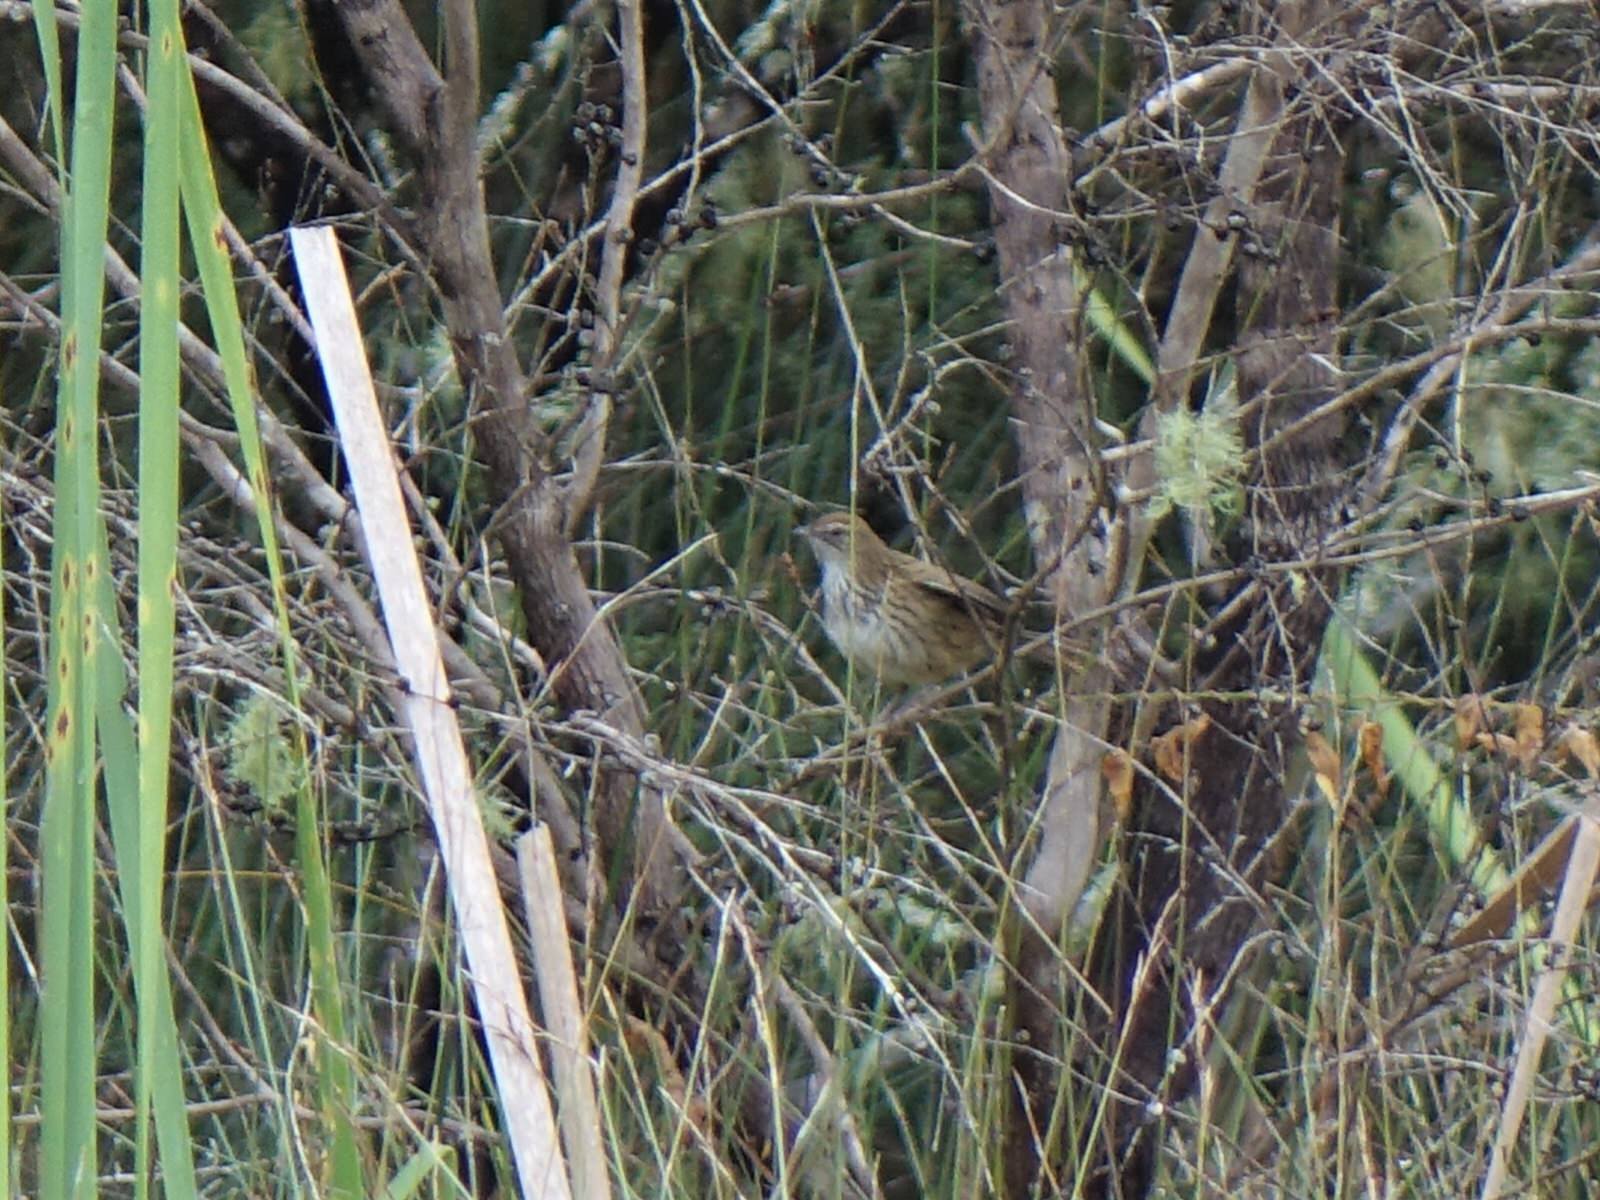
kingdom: Animalia
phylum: Chordata
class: Aves
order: Passeriformes
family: Locustellidae
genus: Megalurus
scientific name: Megalurus punctatus
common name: New zealand fernbird
